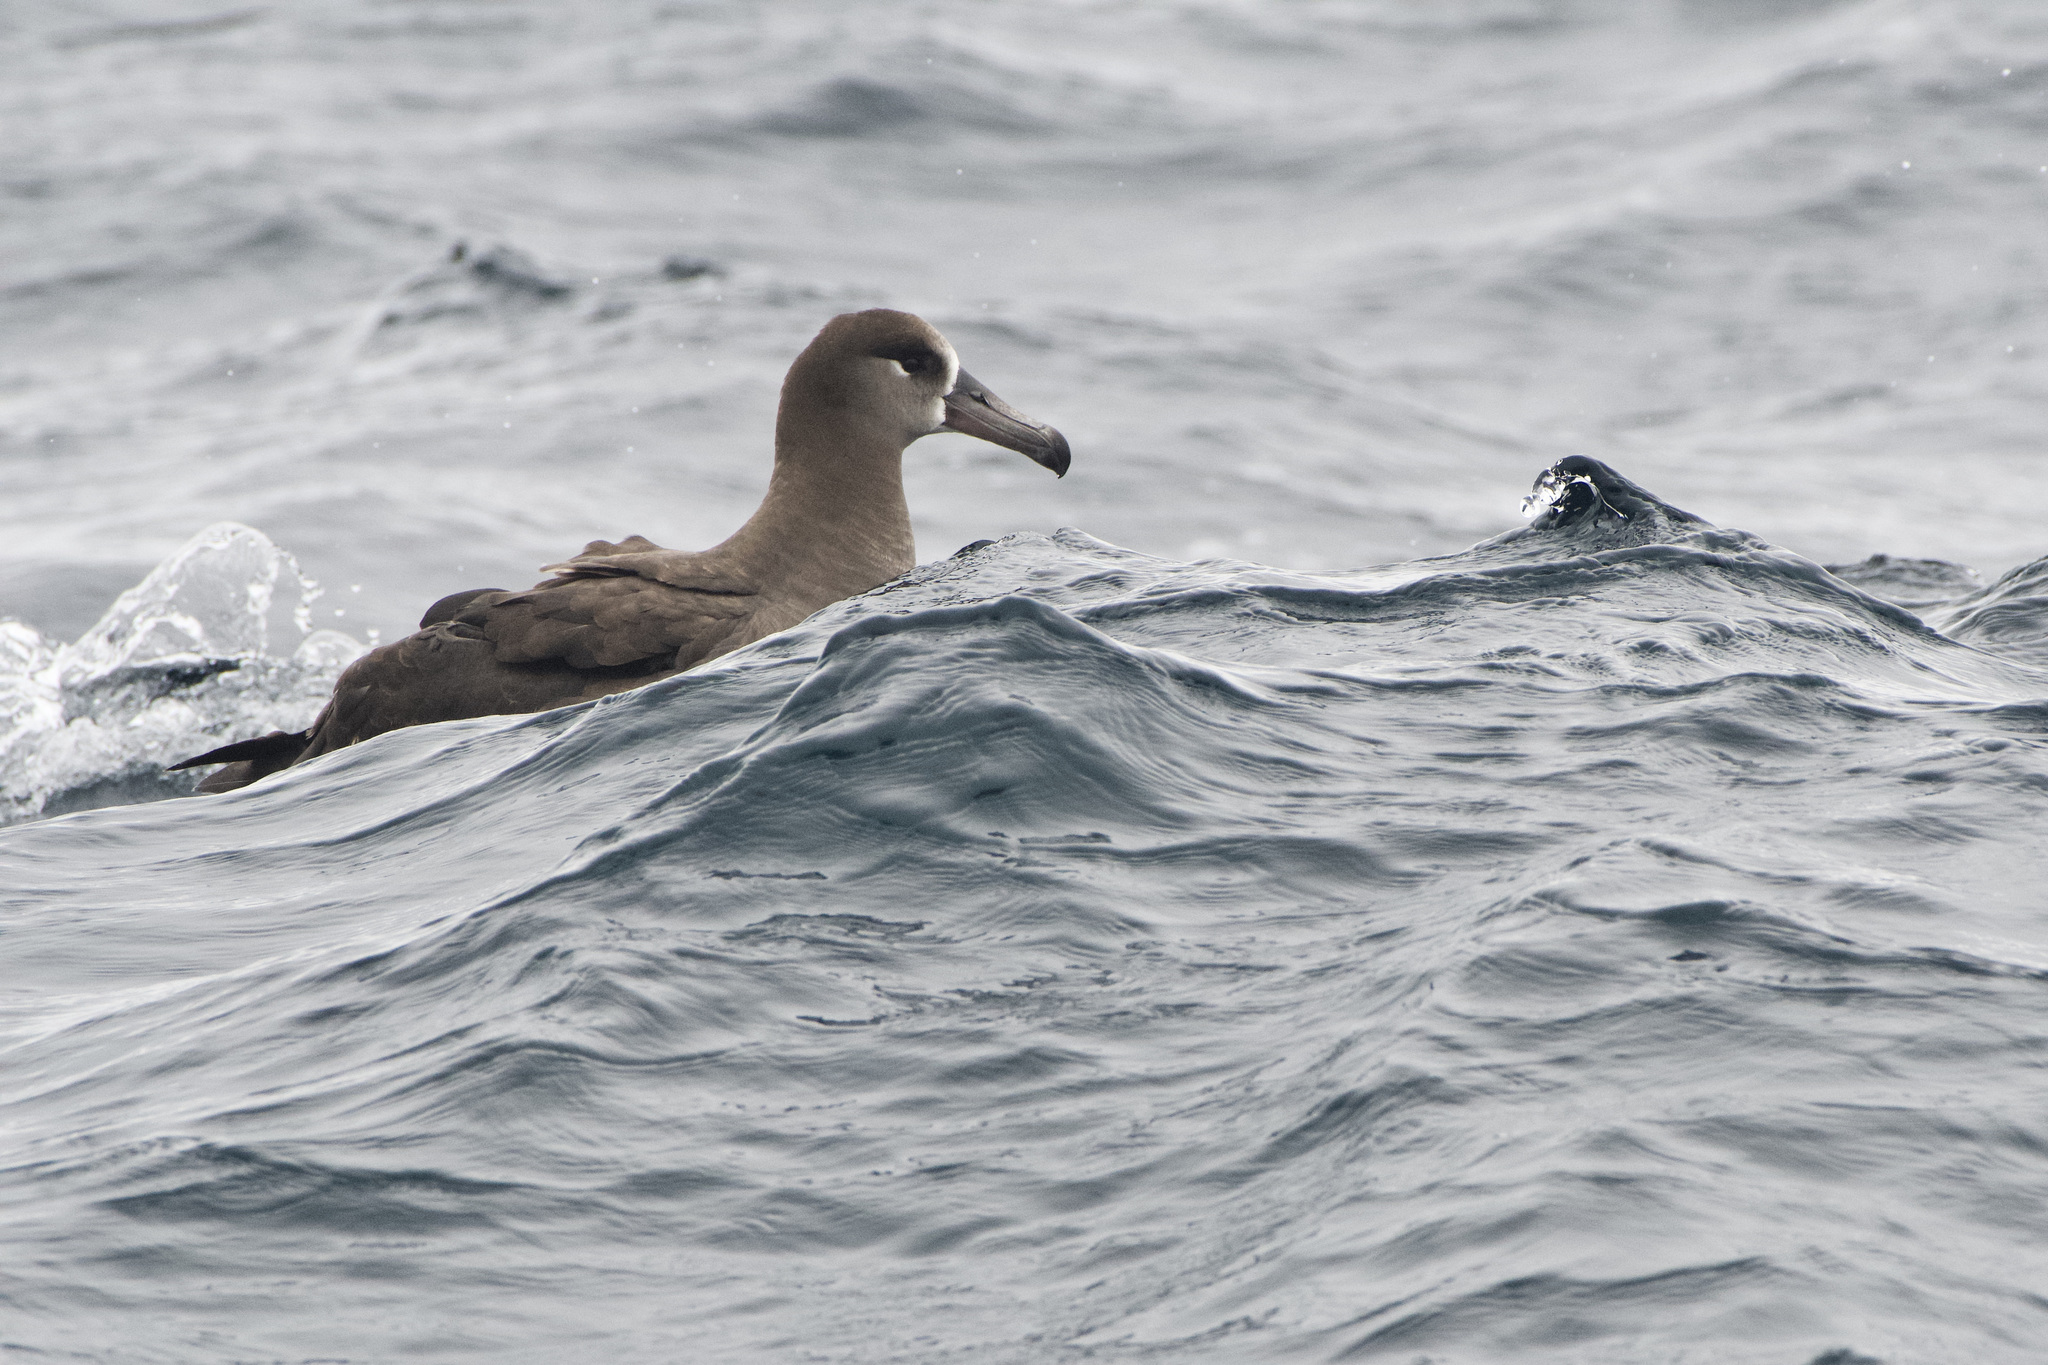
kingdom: Animalia
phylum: Chordata
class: Aves
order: Procellariiformes
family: Diomedeidae
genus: Phoebastria
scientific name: Phoebastria nigripes
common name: Black-footed albatross
